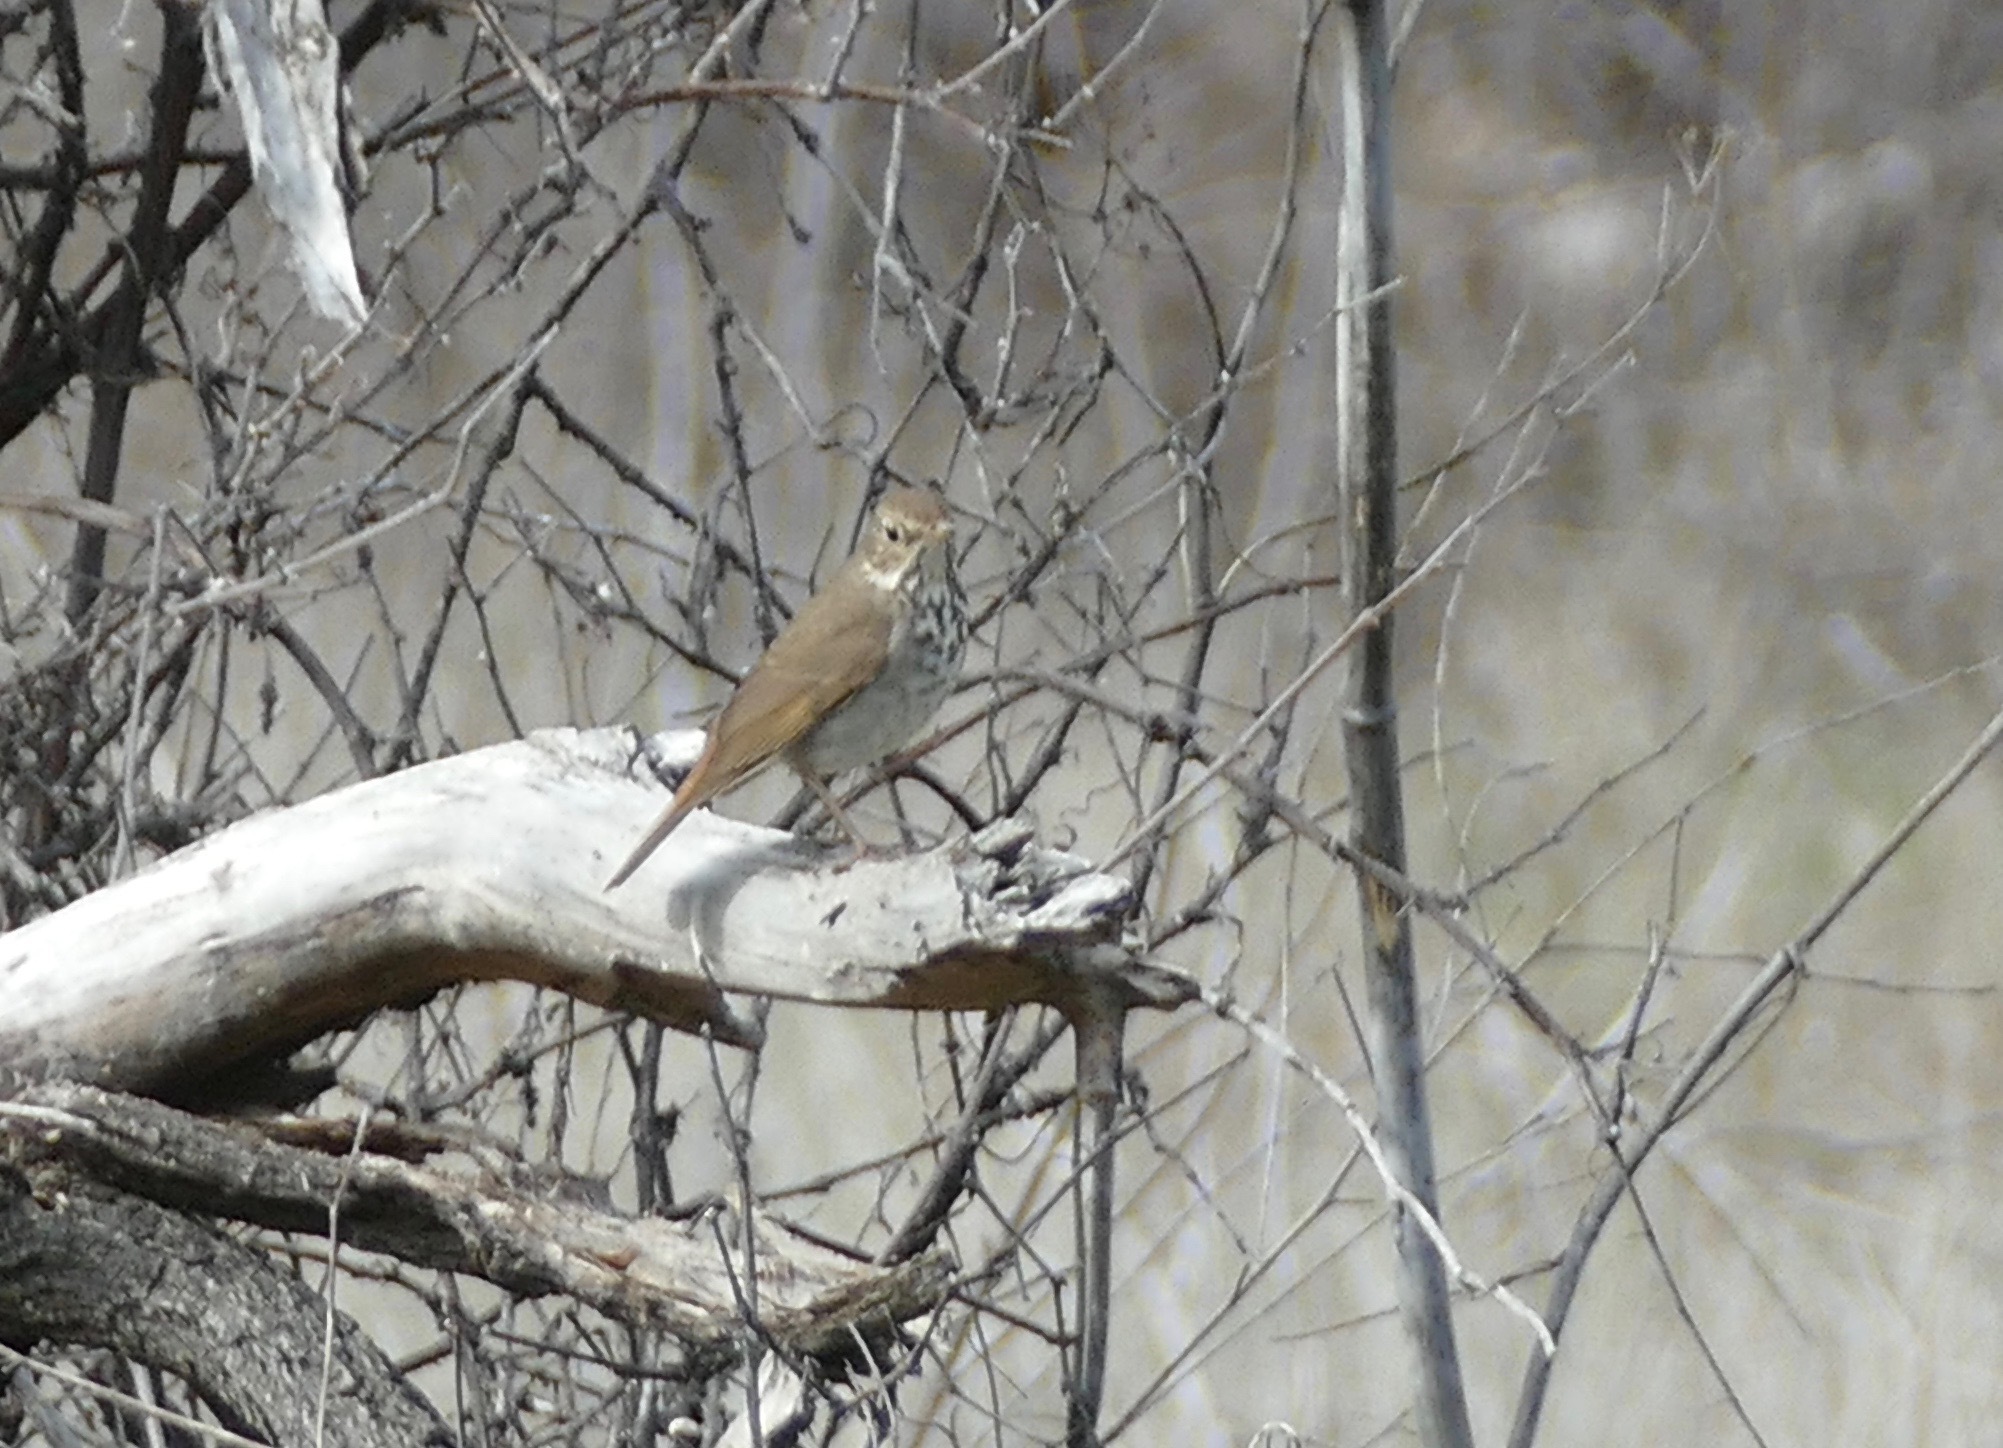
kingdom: Animalia
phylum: Chordata
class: Aves
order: Passeriformes
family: Turdidae
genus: Catharus
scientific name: Catharus guttatus
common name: Hermit thrush
